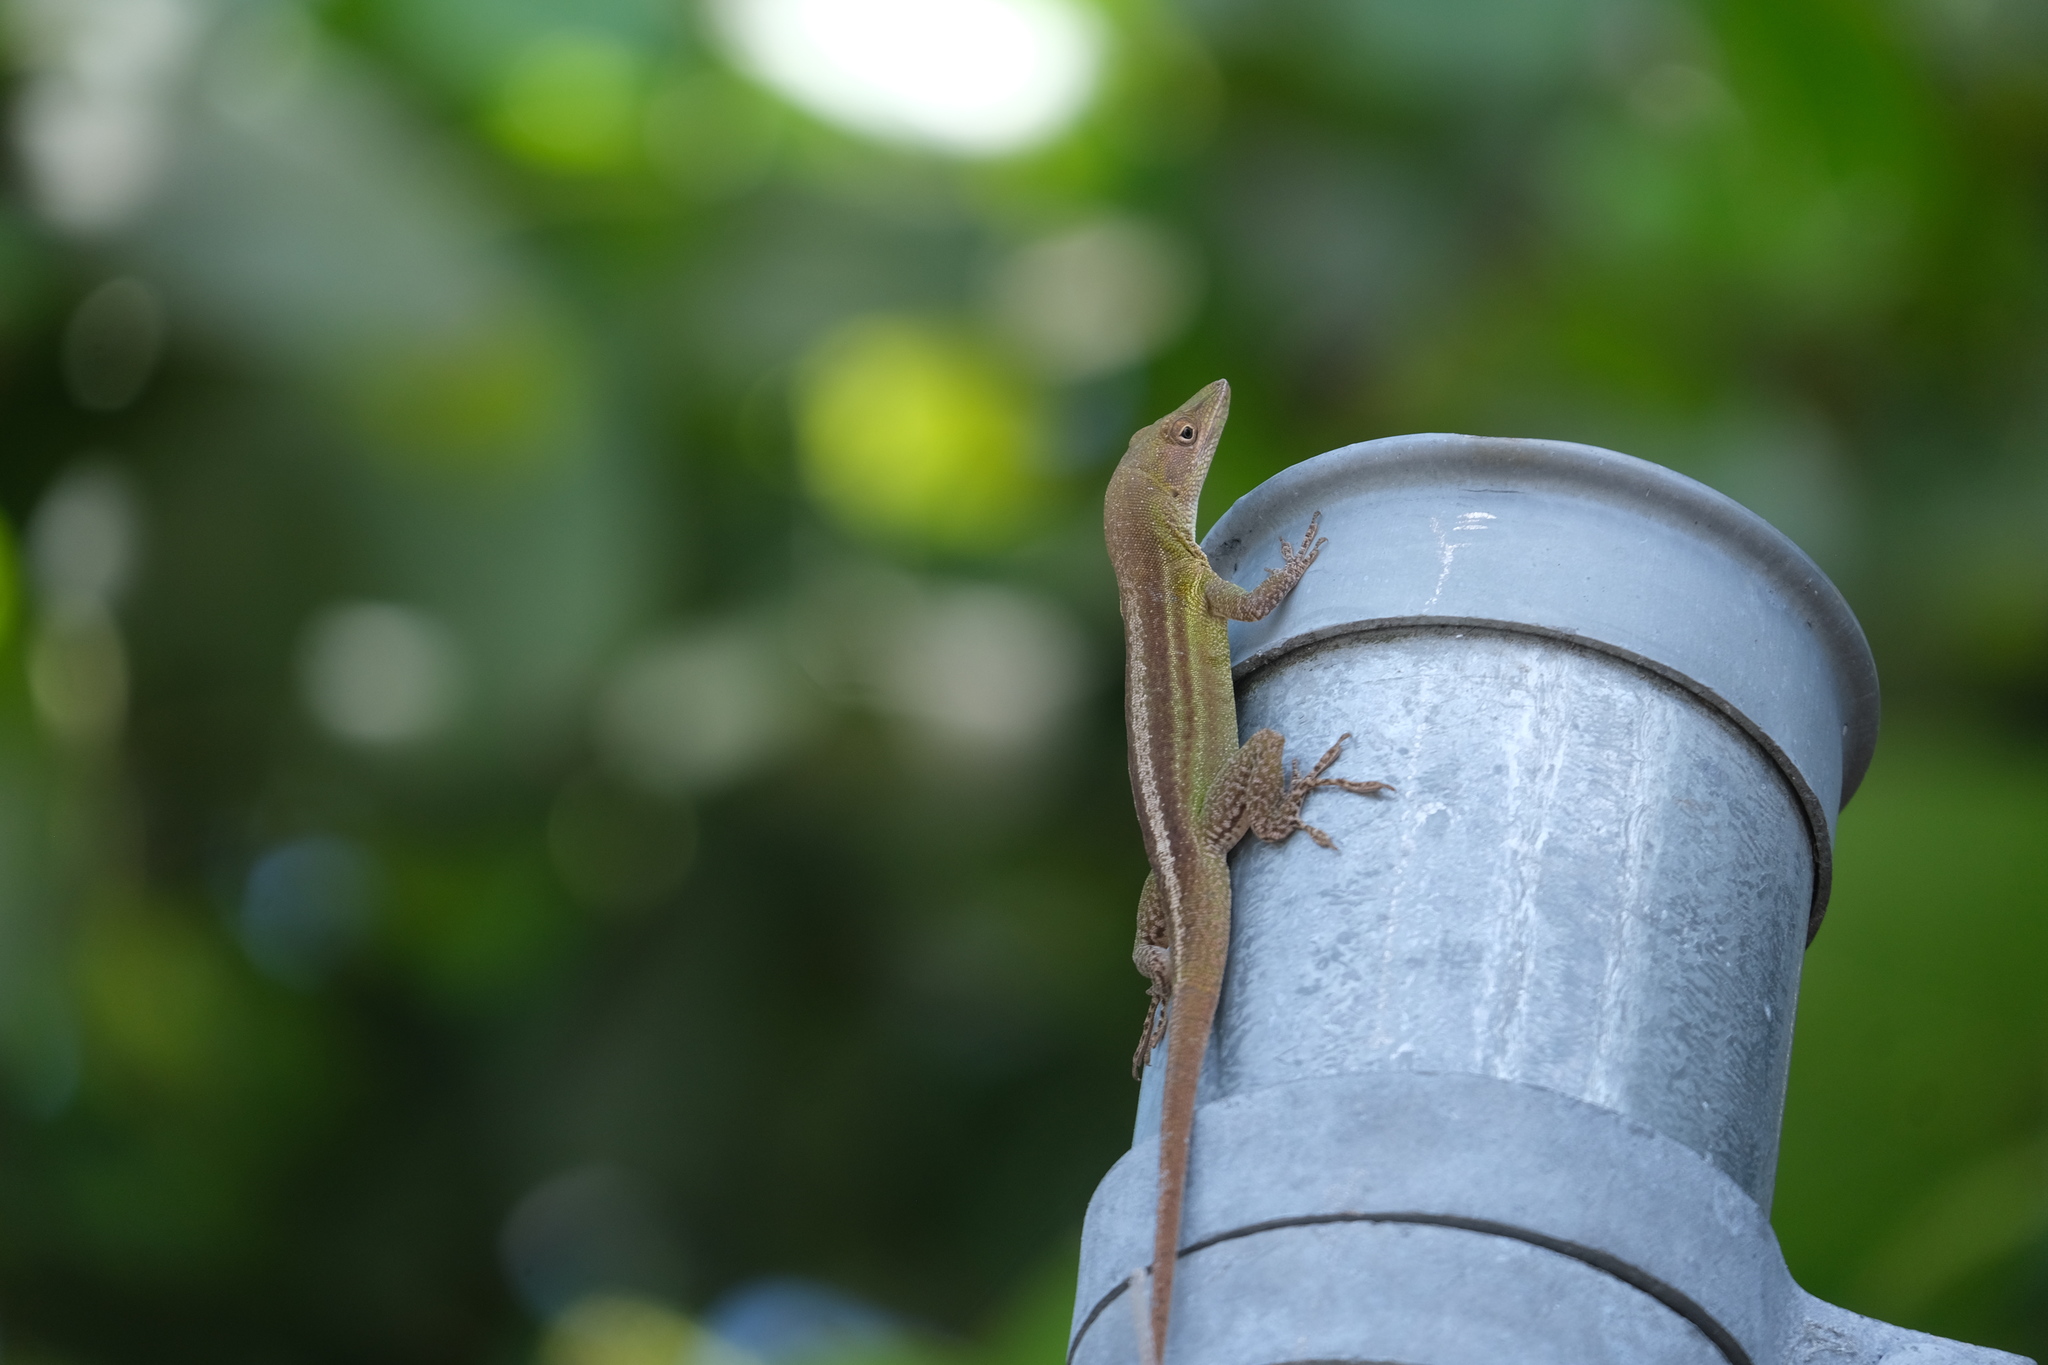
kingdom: Animalia
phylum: Chordata
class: Squamata
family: Dactyloidae
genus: Anolis
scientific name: Anolis chlorocyanus
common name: Hispaniolan green anole
